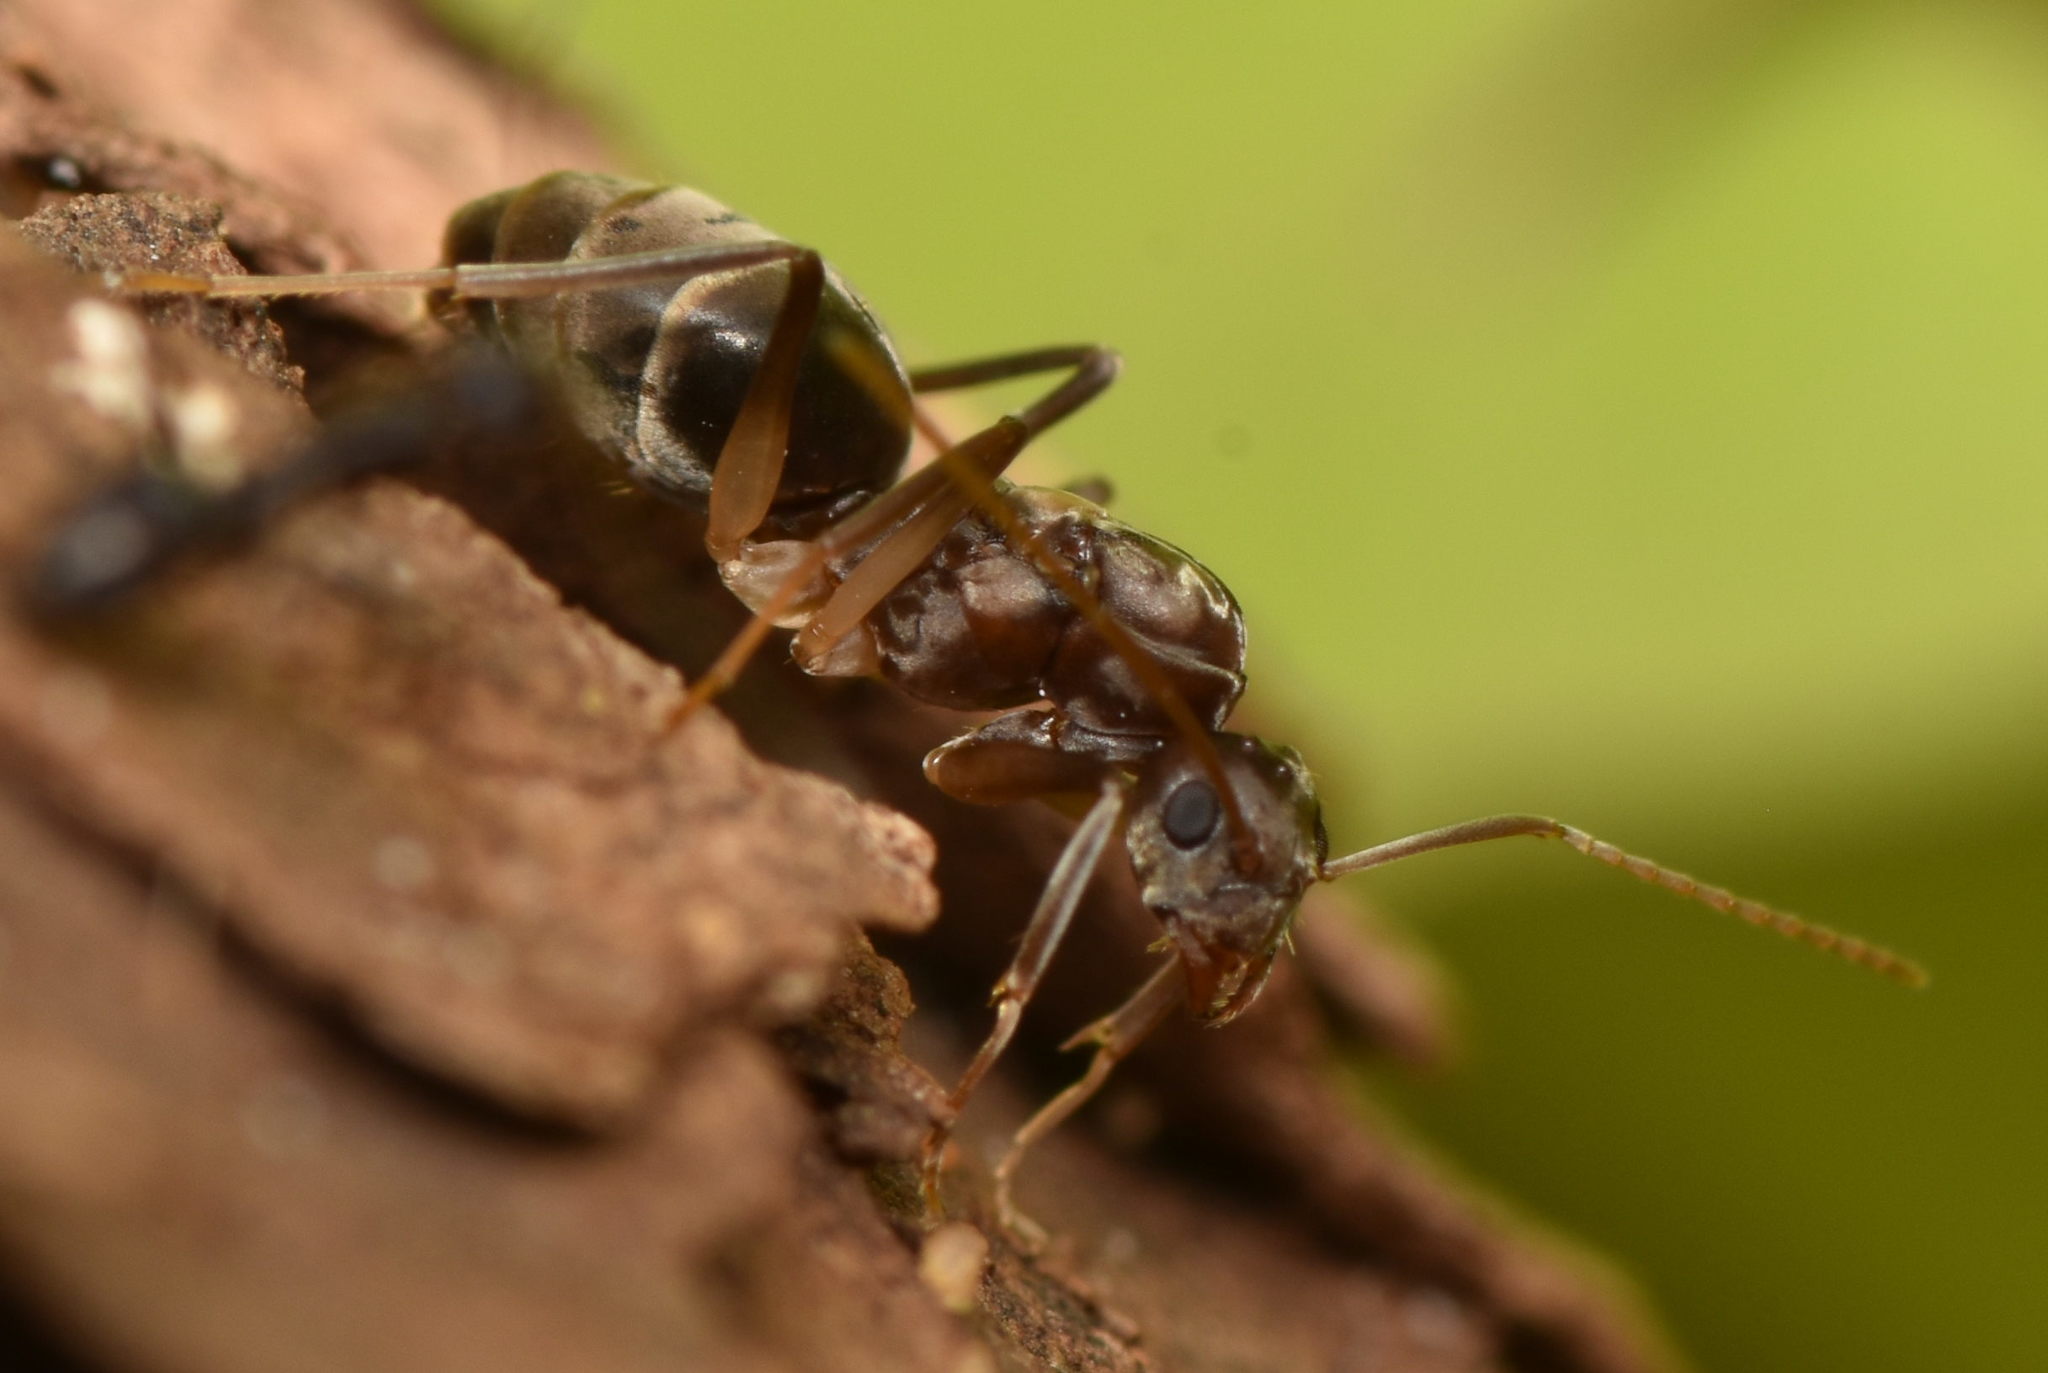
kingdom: Animalia
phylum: Arthropoda
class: Insecta
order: Hymenoptera
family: Formicidae
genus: Paratrechina
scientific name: Paratrechina longicornis
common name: Longhorned crazy ant
